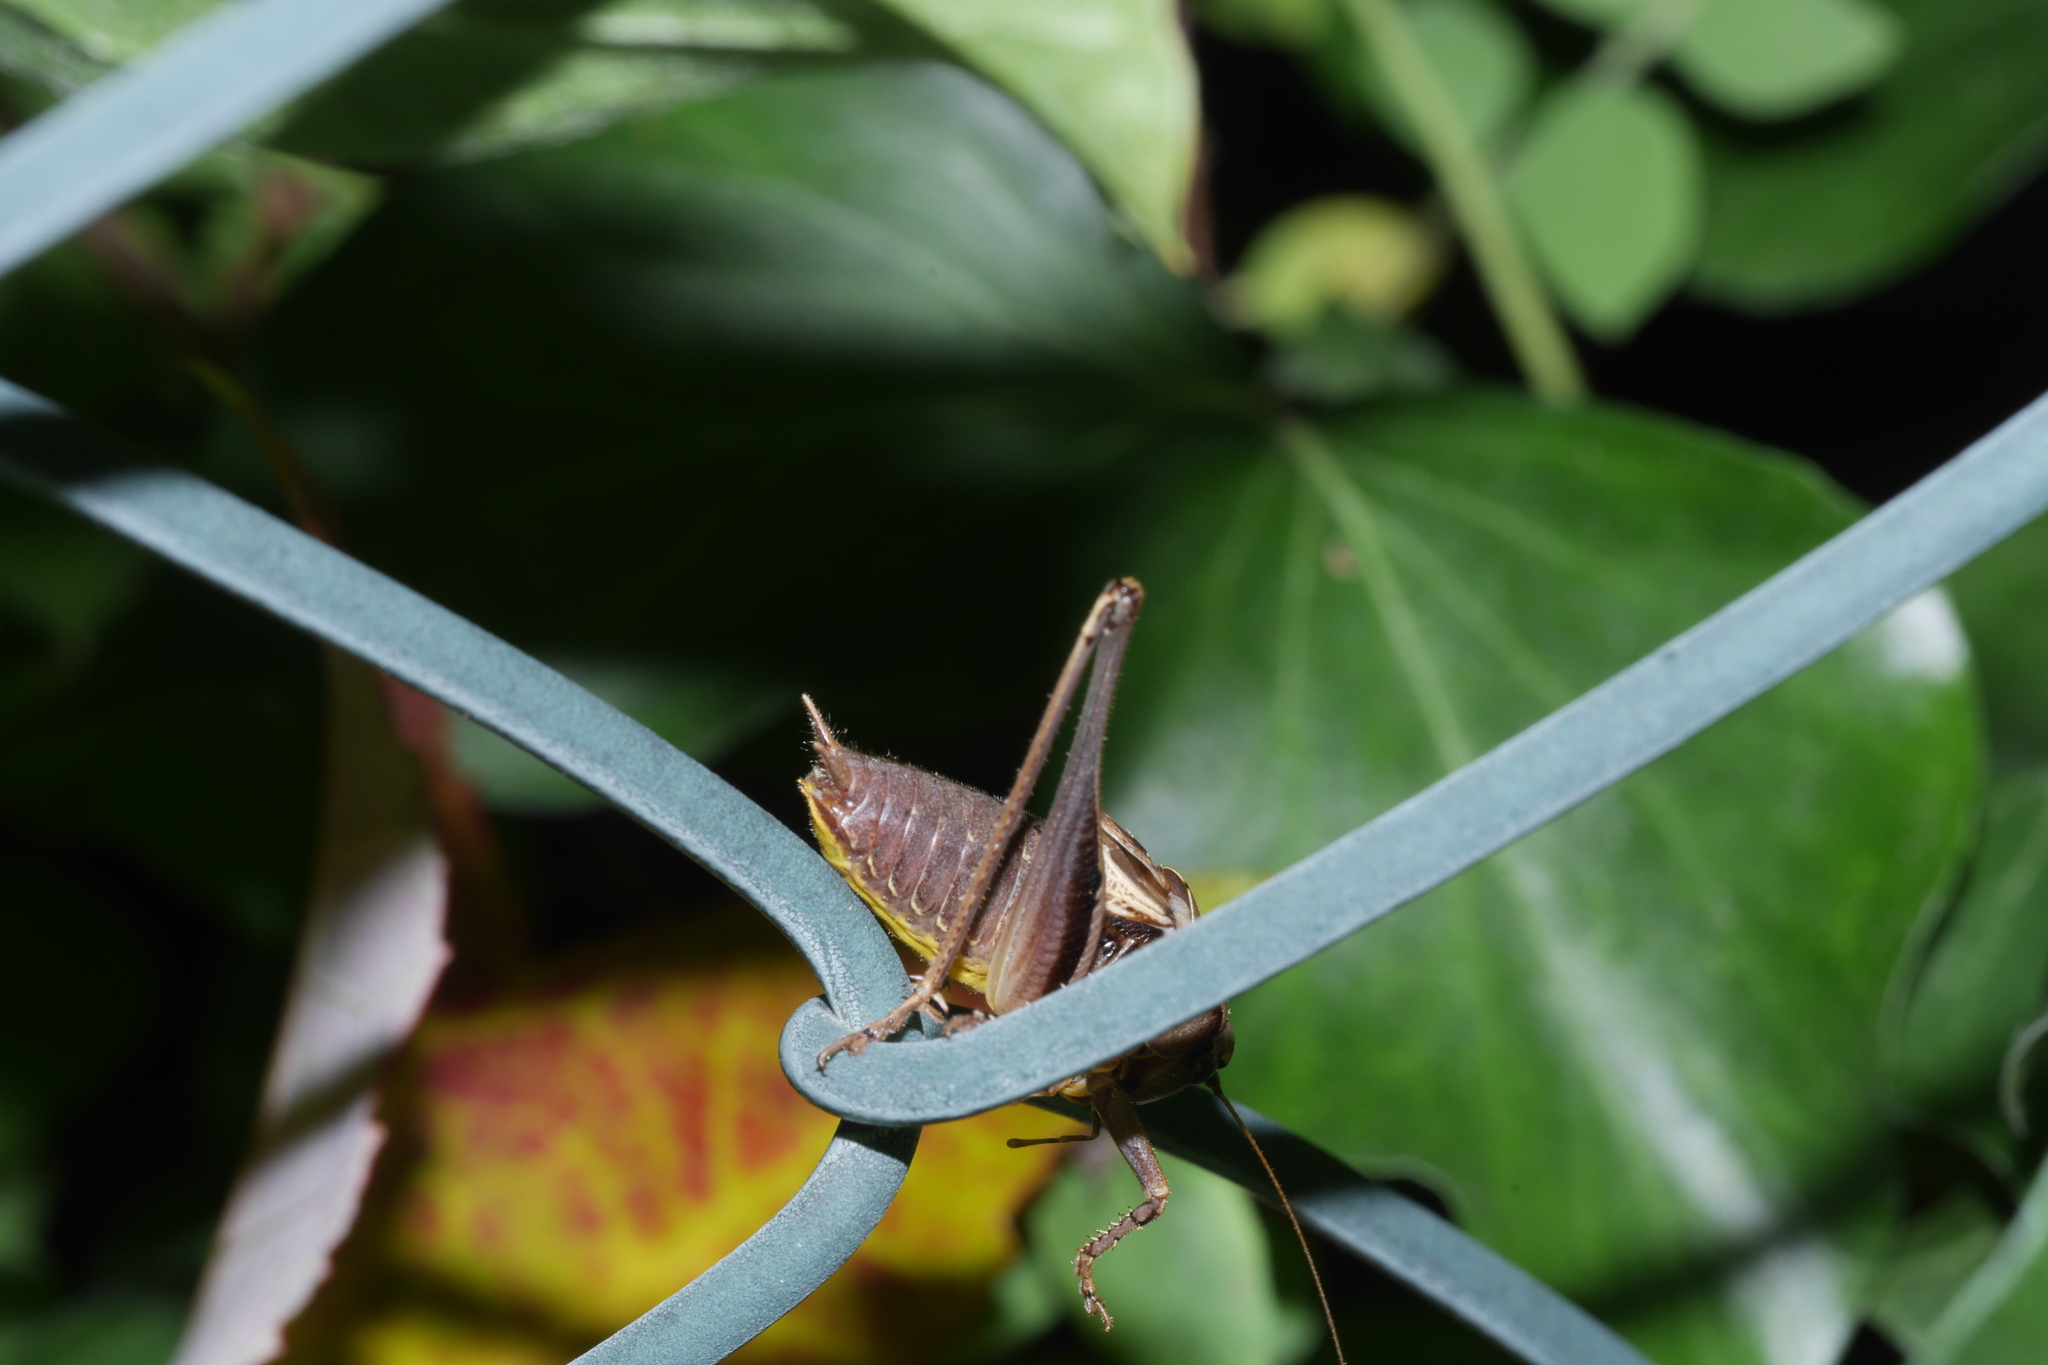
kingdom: Animalia
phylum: Arthropoda
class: Insecta
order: Orthoptera
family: Tettigoniidae
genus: Pholidoptera
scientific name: Pholidoptera griseoaptera
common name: Dark bush-cricket
